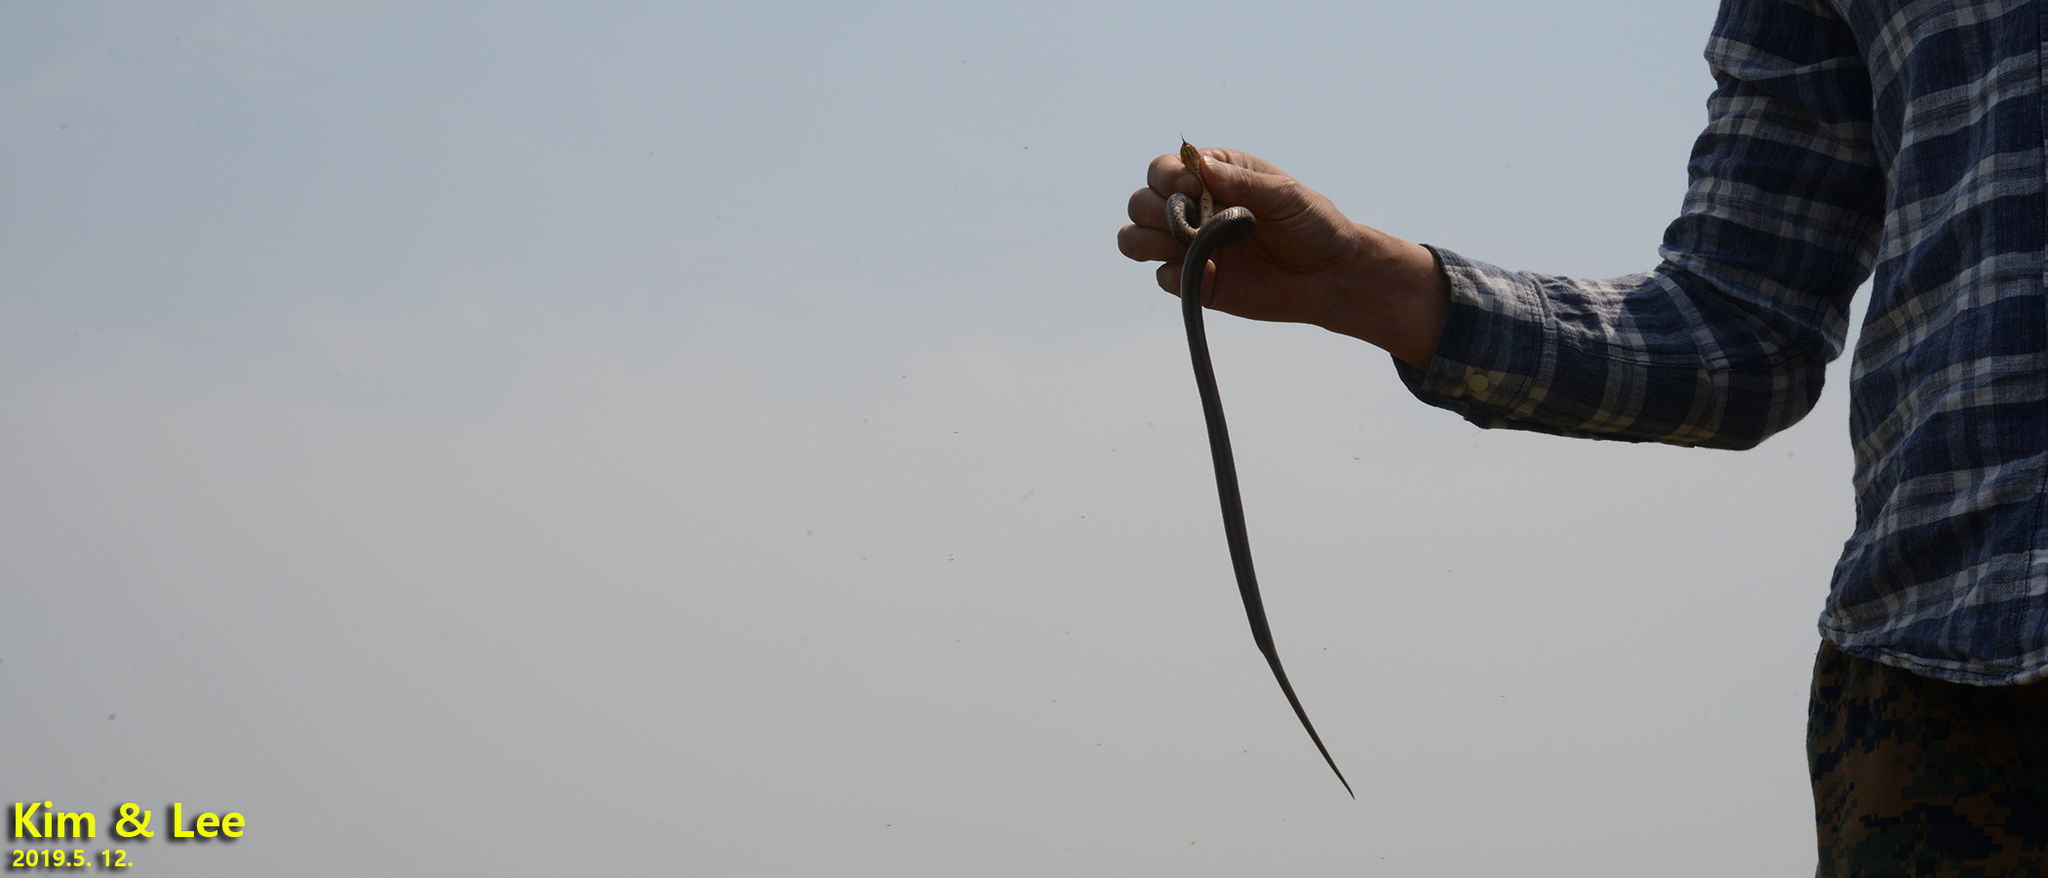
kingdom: Animalia
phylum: Chordata
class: Squamata
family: Colubridae
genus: Oocatochus
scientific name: Oocatochus rufodorsatus
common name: Frog-eating rat snake
